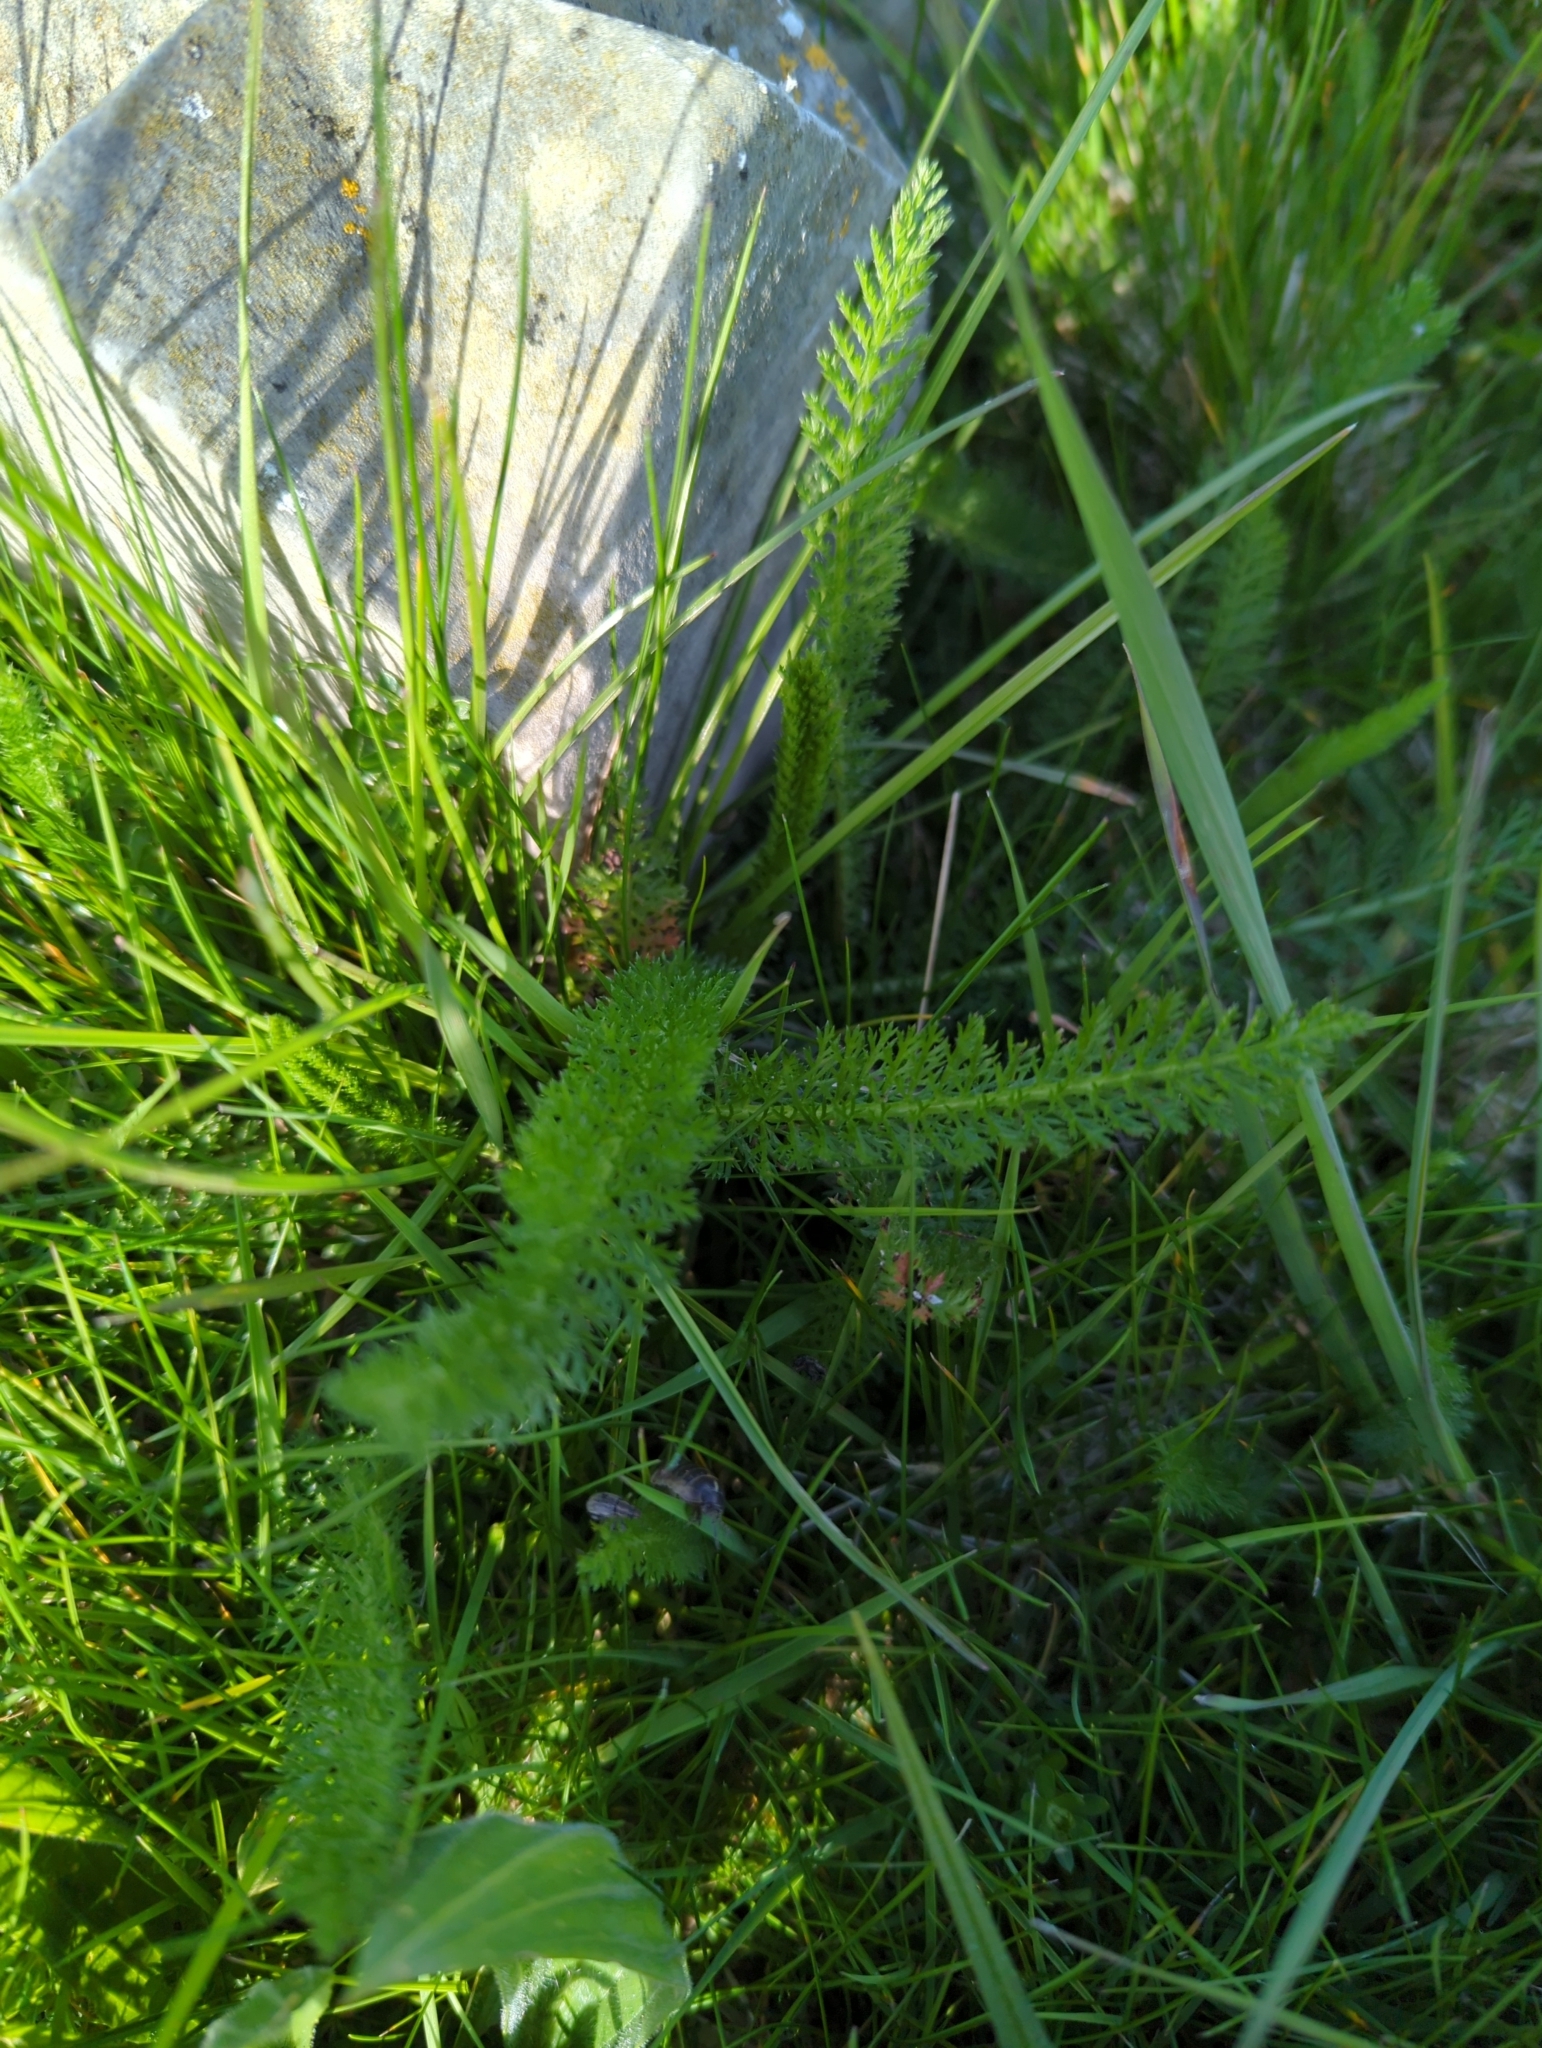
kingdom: Plantae
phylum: Tracheophyta
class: Magnoliopsida
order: Asterales
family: Asteraceae
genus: Achillea
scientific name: Achillea millefolium
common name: Yarrow
